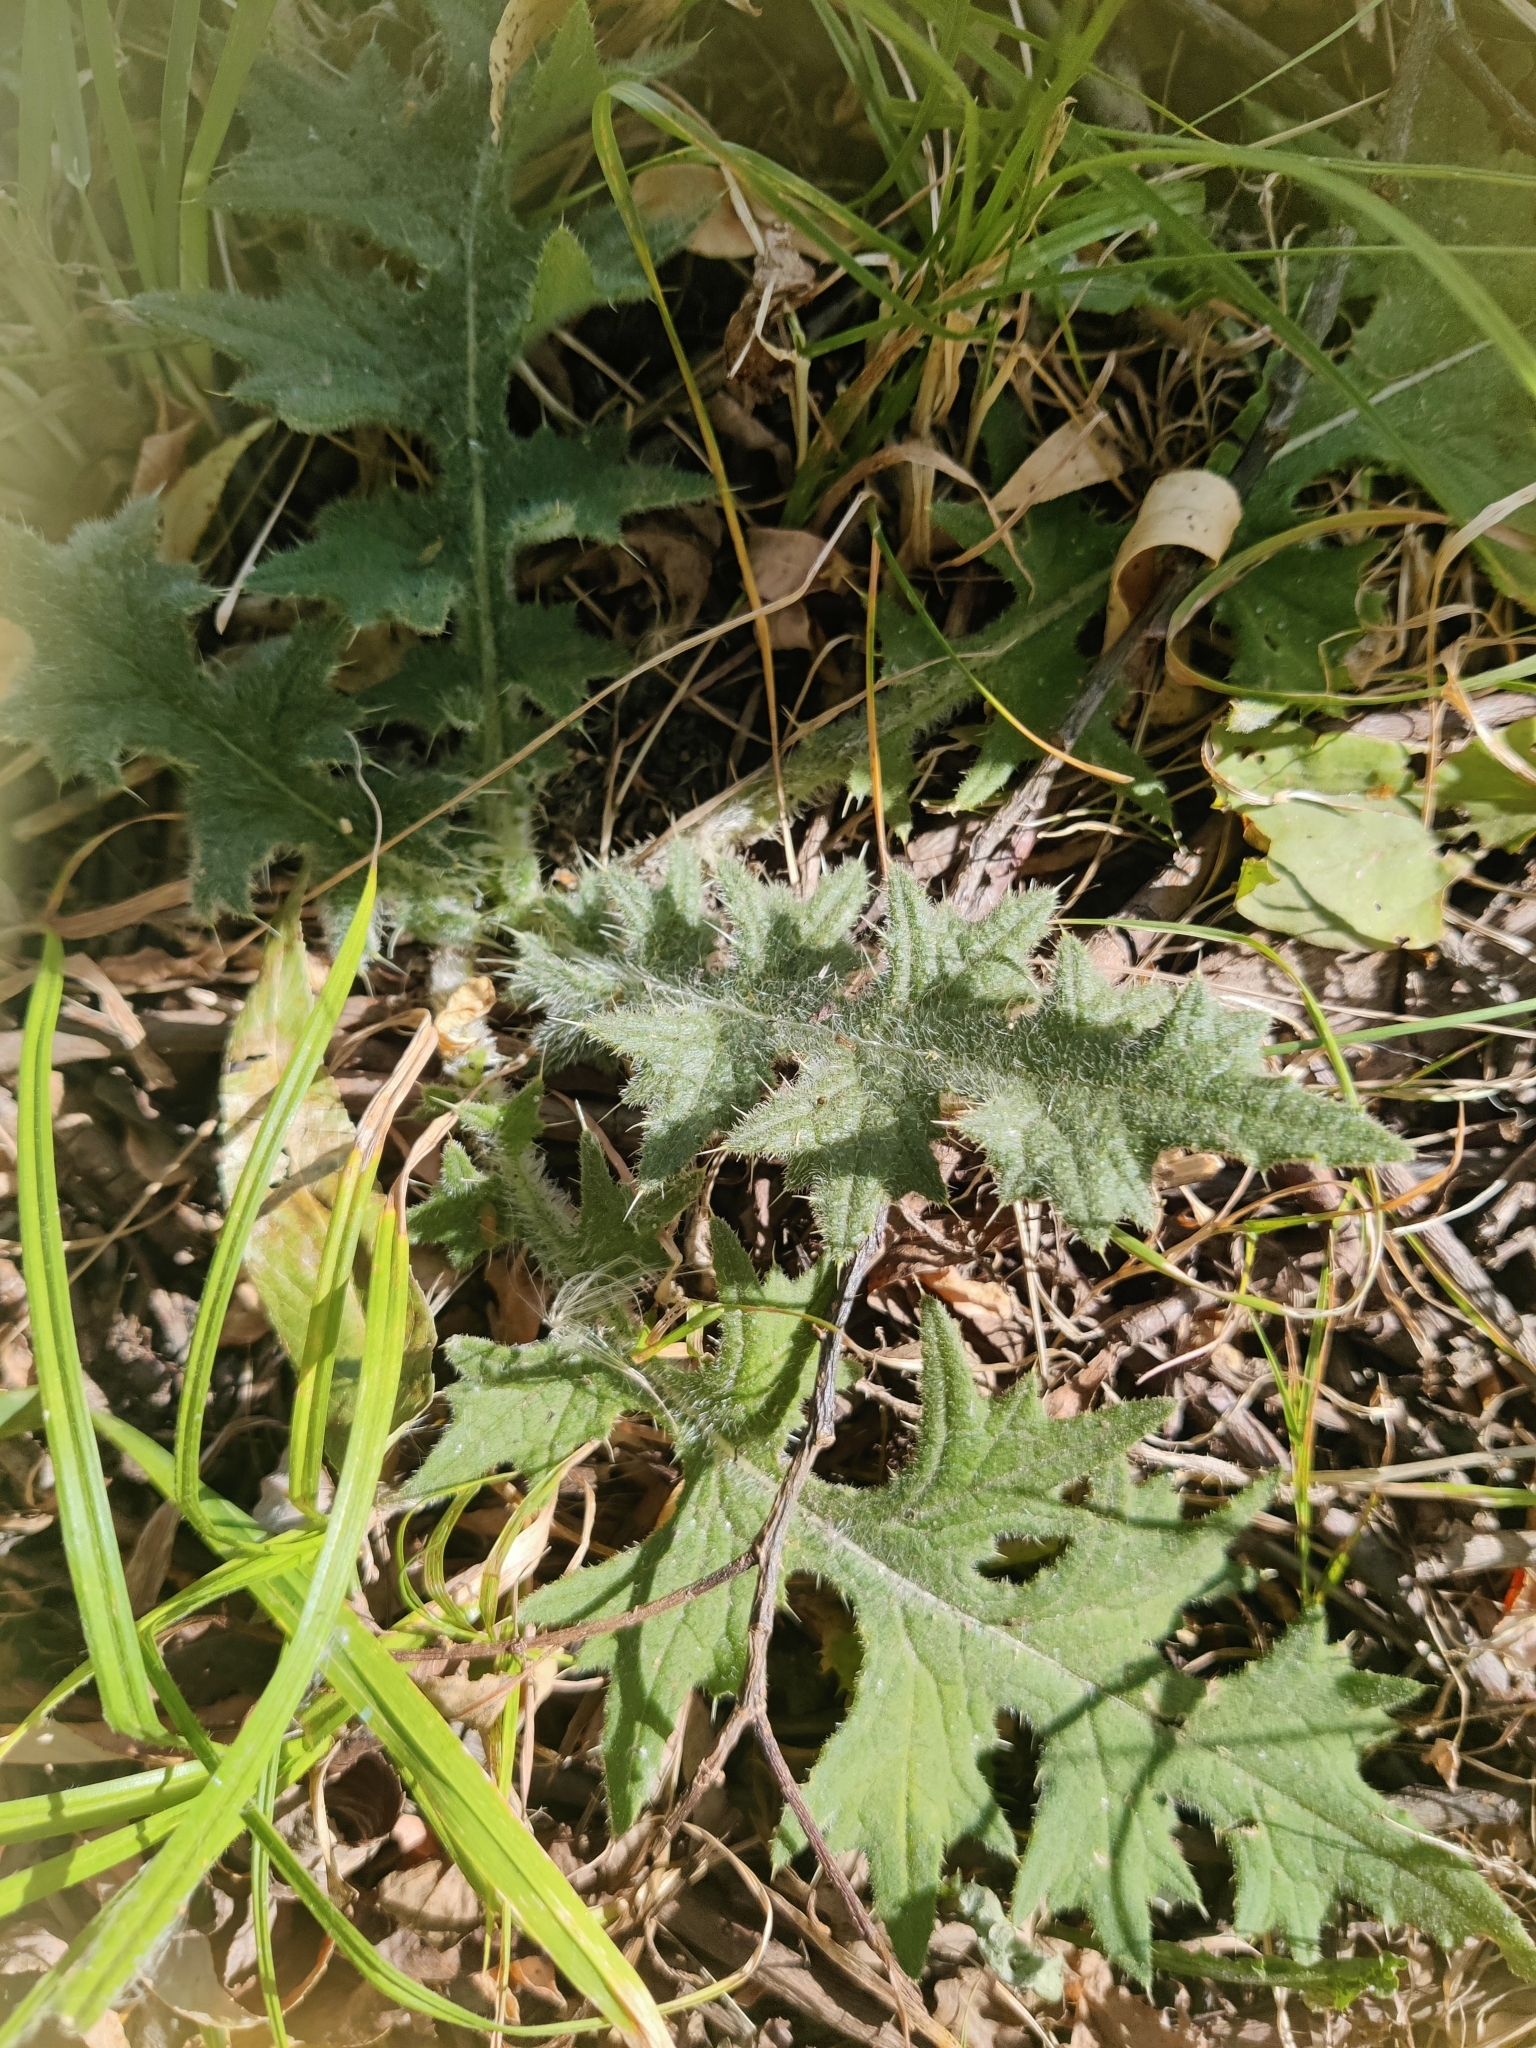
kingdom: Plantae
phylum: Tracheophyta
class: Magnoliopsida
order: Asterales
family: Asteraceae
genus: Cirsium
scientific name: Cirsium vulgare
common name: Bull thistle
